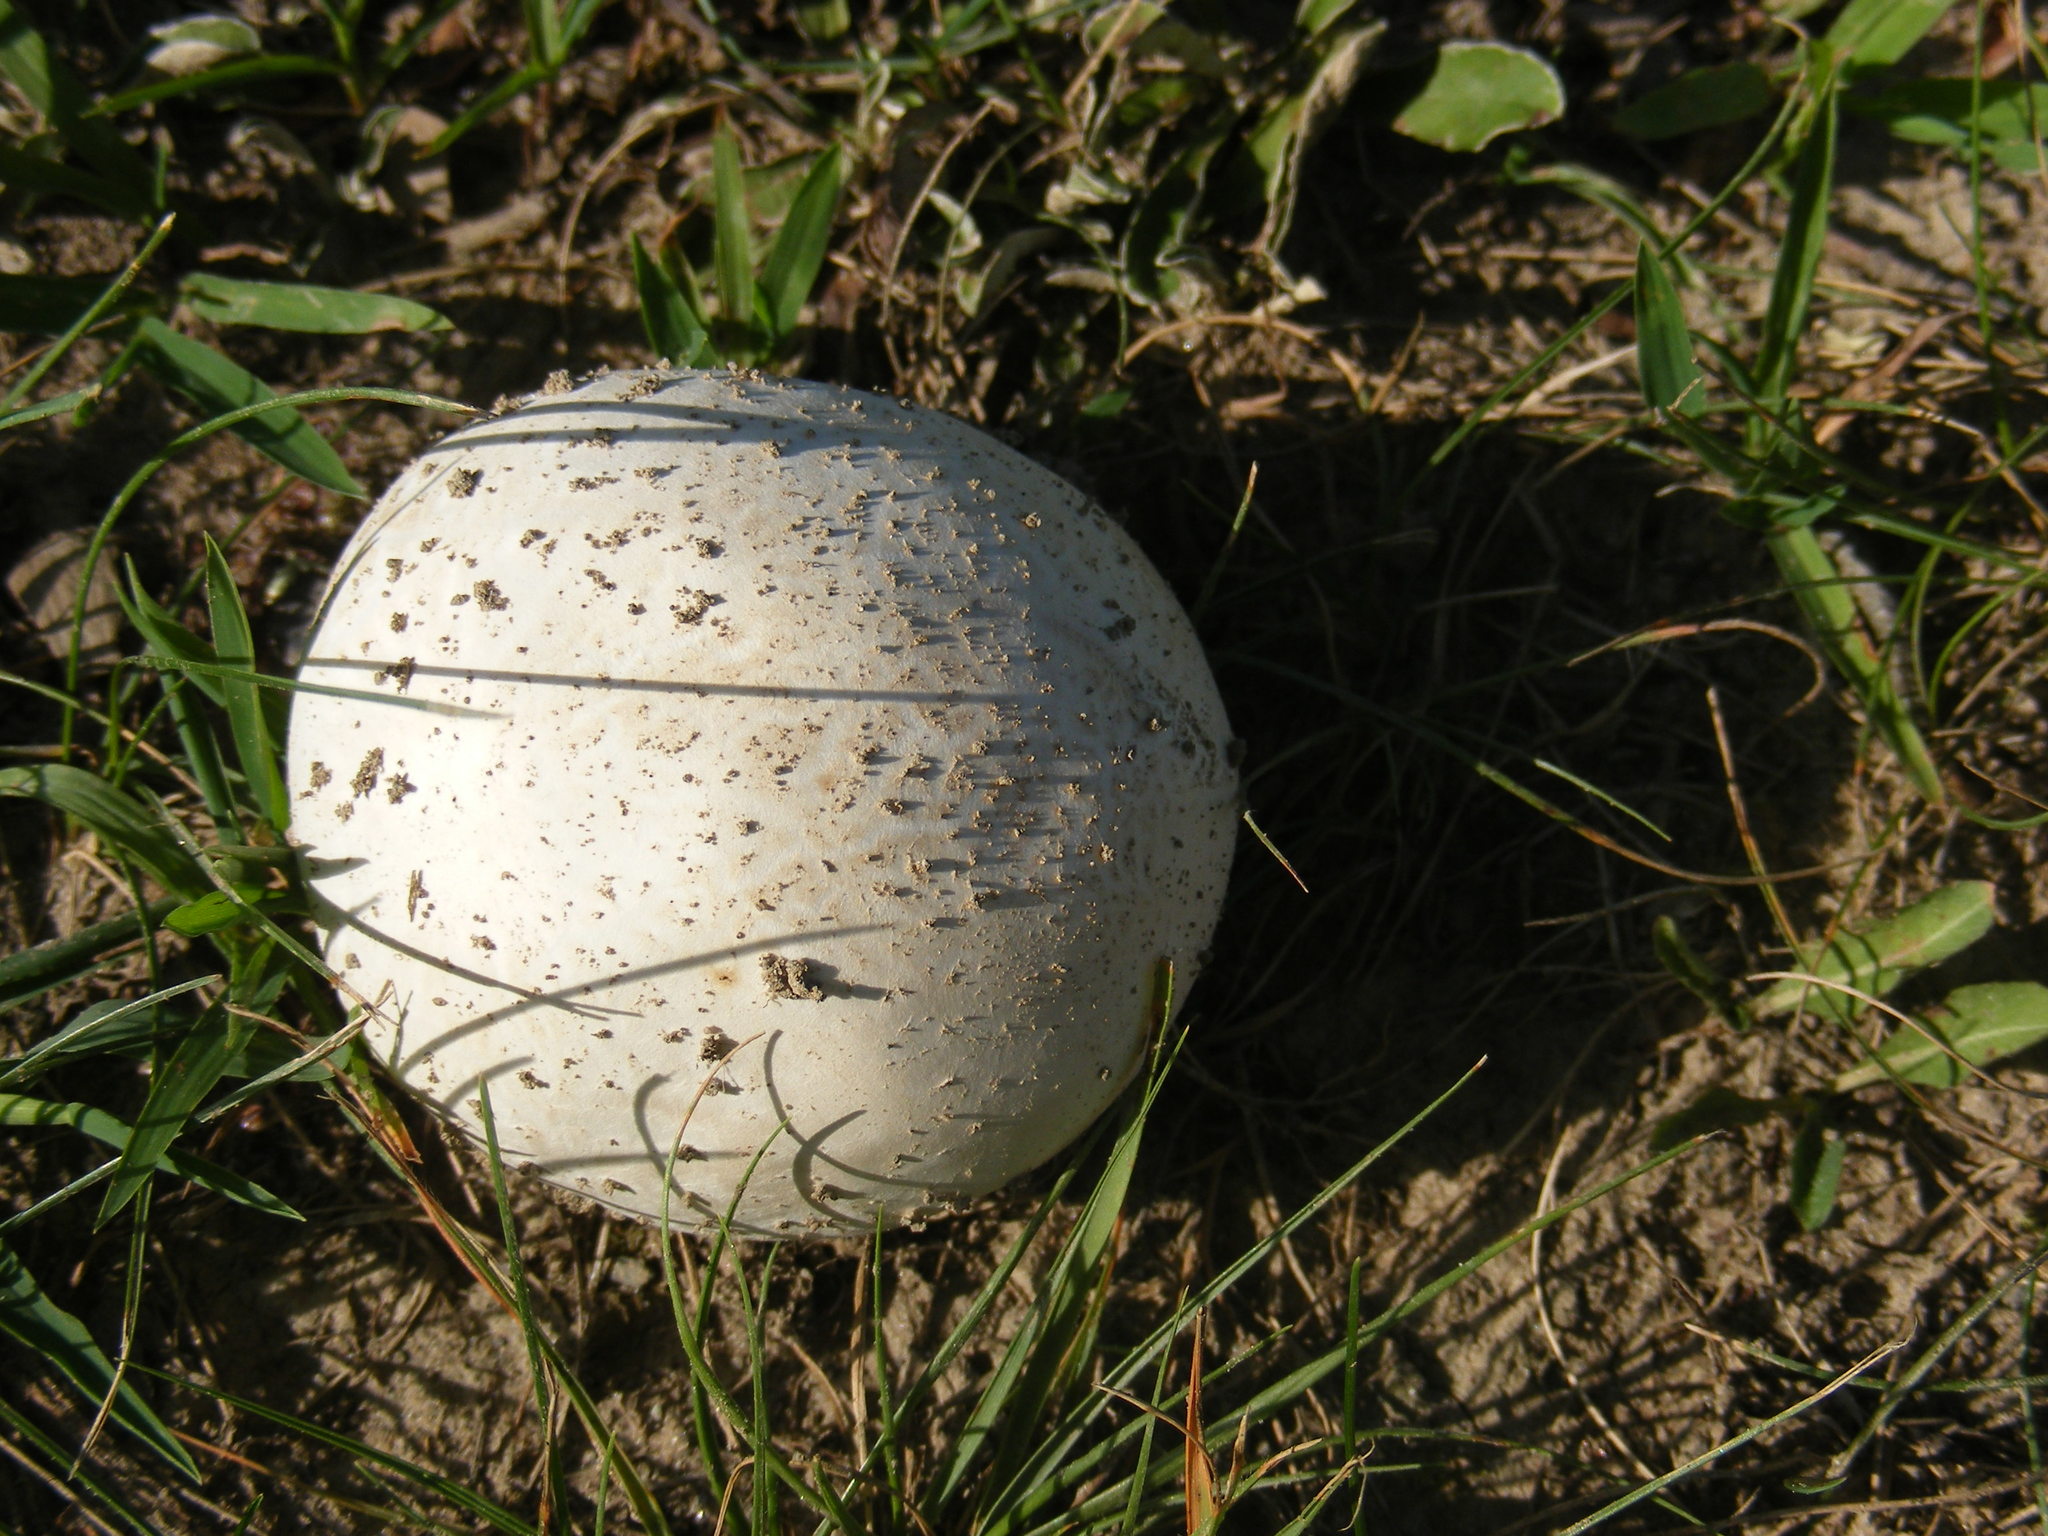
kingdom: Fungi
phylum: Basidiomycota
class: Agaricomycetes
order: Agaricales
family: Lycoperdaceae
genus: Calvatia
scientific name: Calvatia gigantea
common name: Giant puffball
